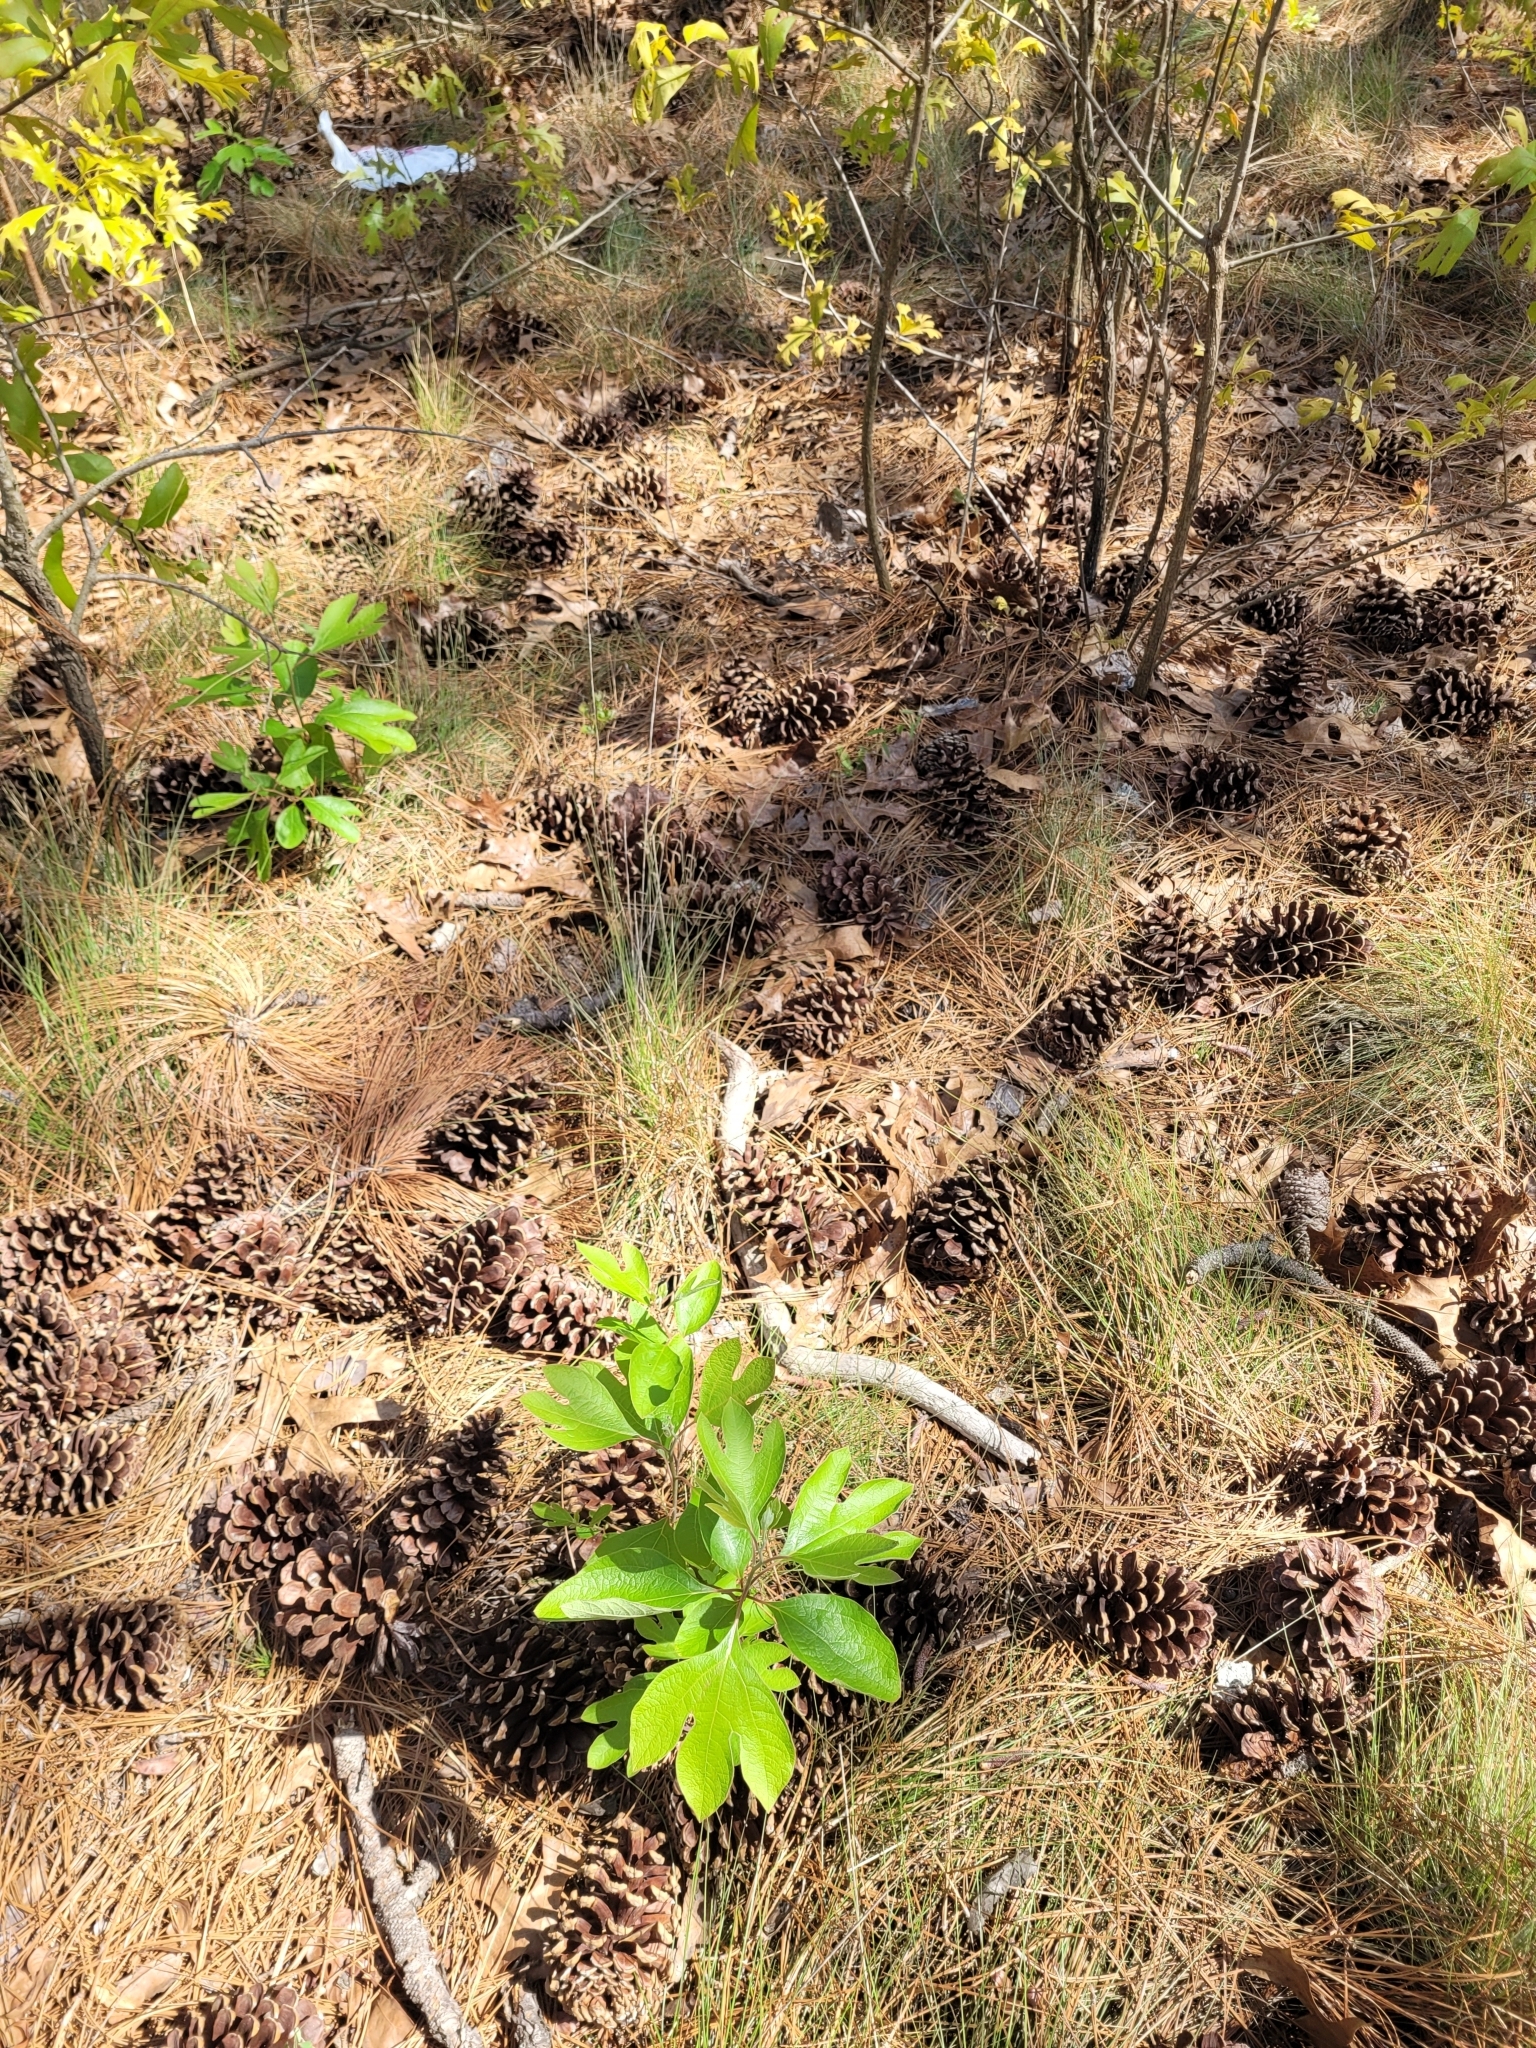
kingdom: Plantae
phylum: Tracheophyta
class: Magnoliopsida
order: Laurales
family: Lauraceae
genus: Sassafras
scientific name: Sassafras albidum
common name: Sassafras
